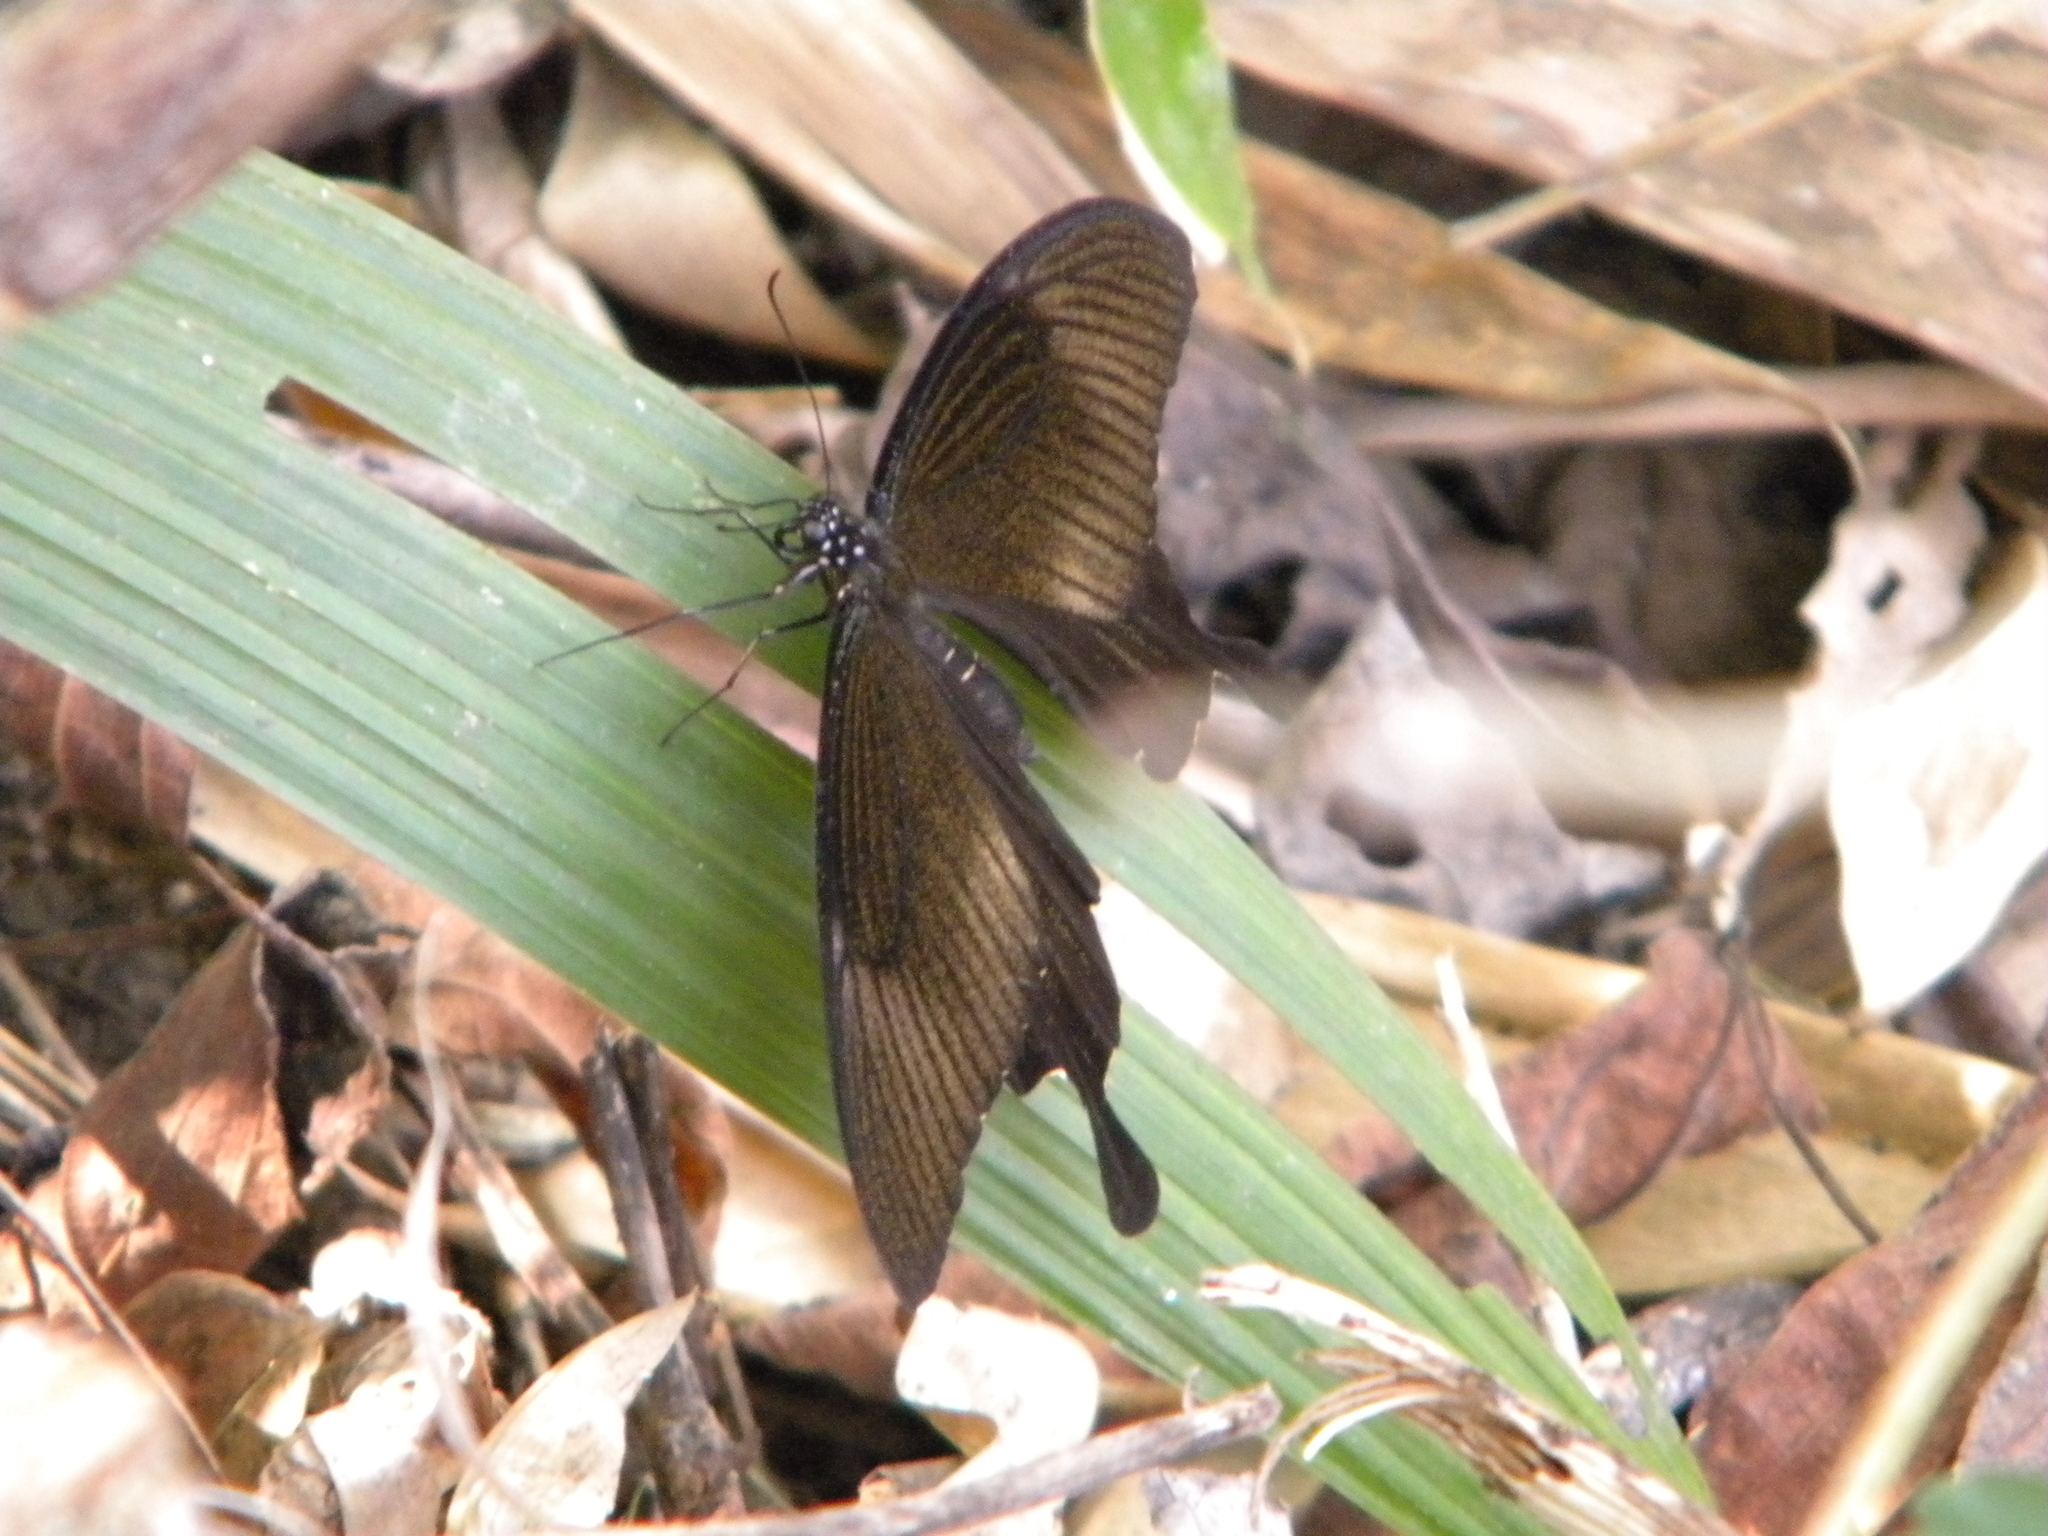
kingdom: Animalia
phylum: Arthropoda
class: Insecta
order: Lepidoptera
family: Papilionidae
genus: Papilio
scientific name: Papilio nephelus
